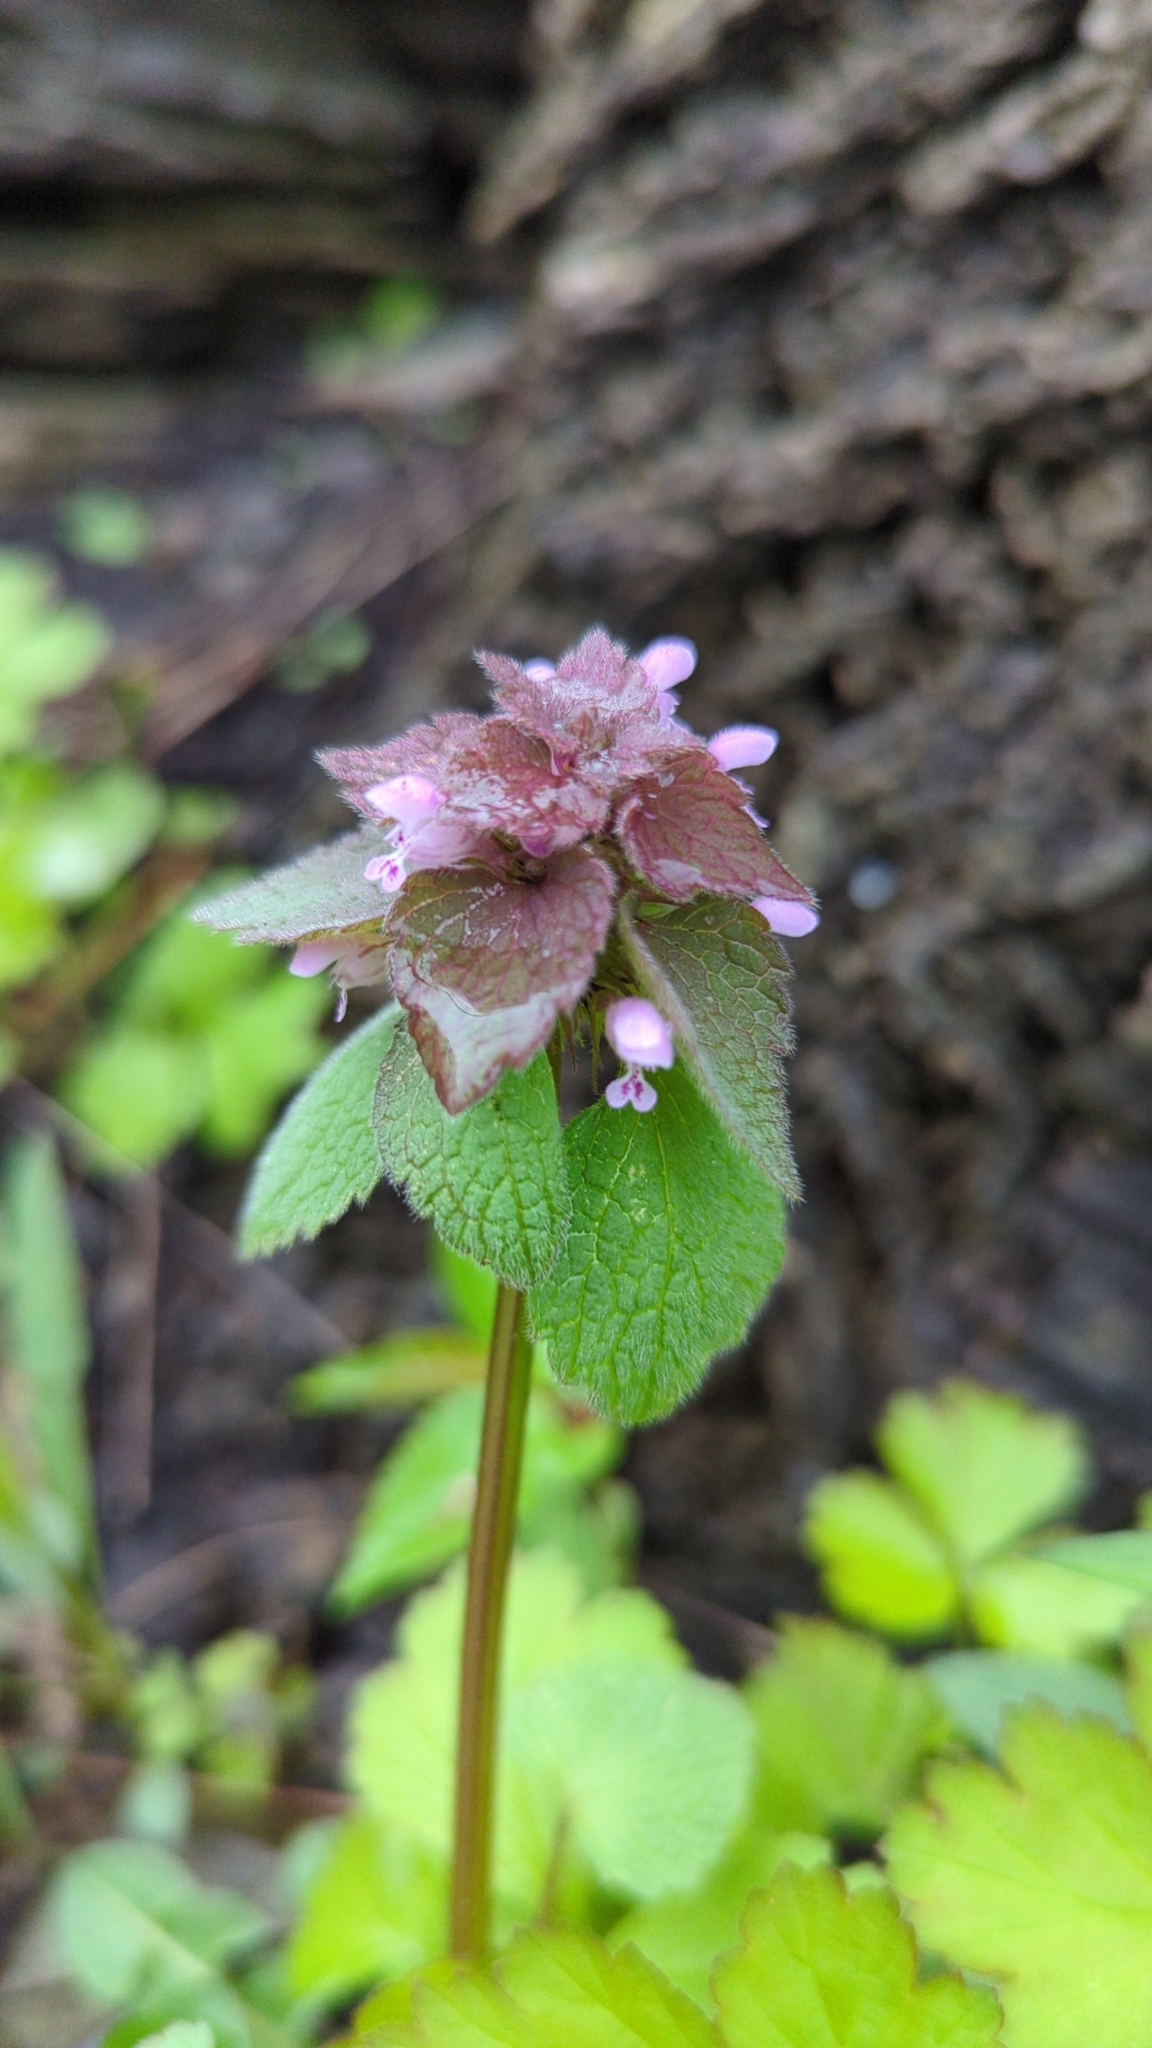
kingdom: Plantae
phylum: Tracheophyta
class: Magnoliopsida
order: Lamiales
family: Lamiaceae
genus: Lamium
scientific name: Lamium purpureum
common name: Red dead-nettle
